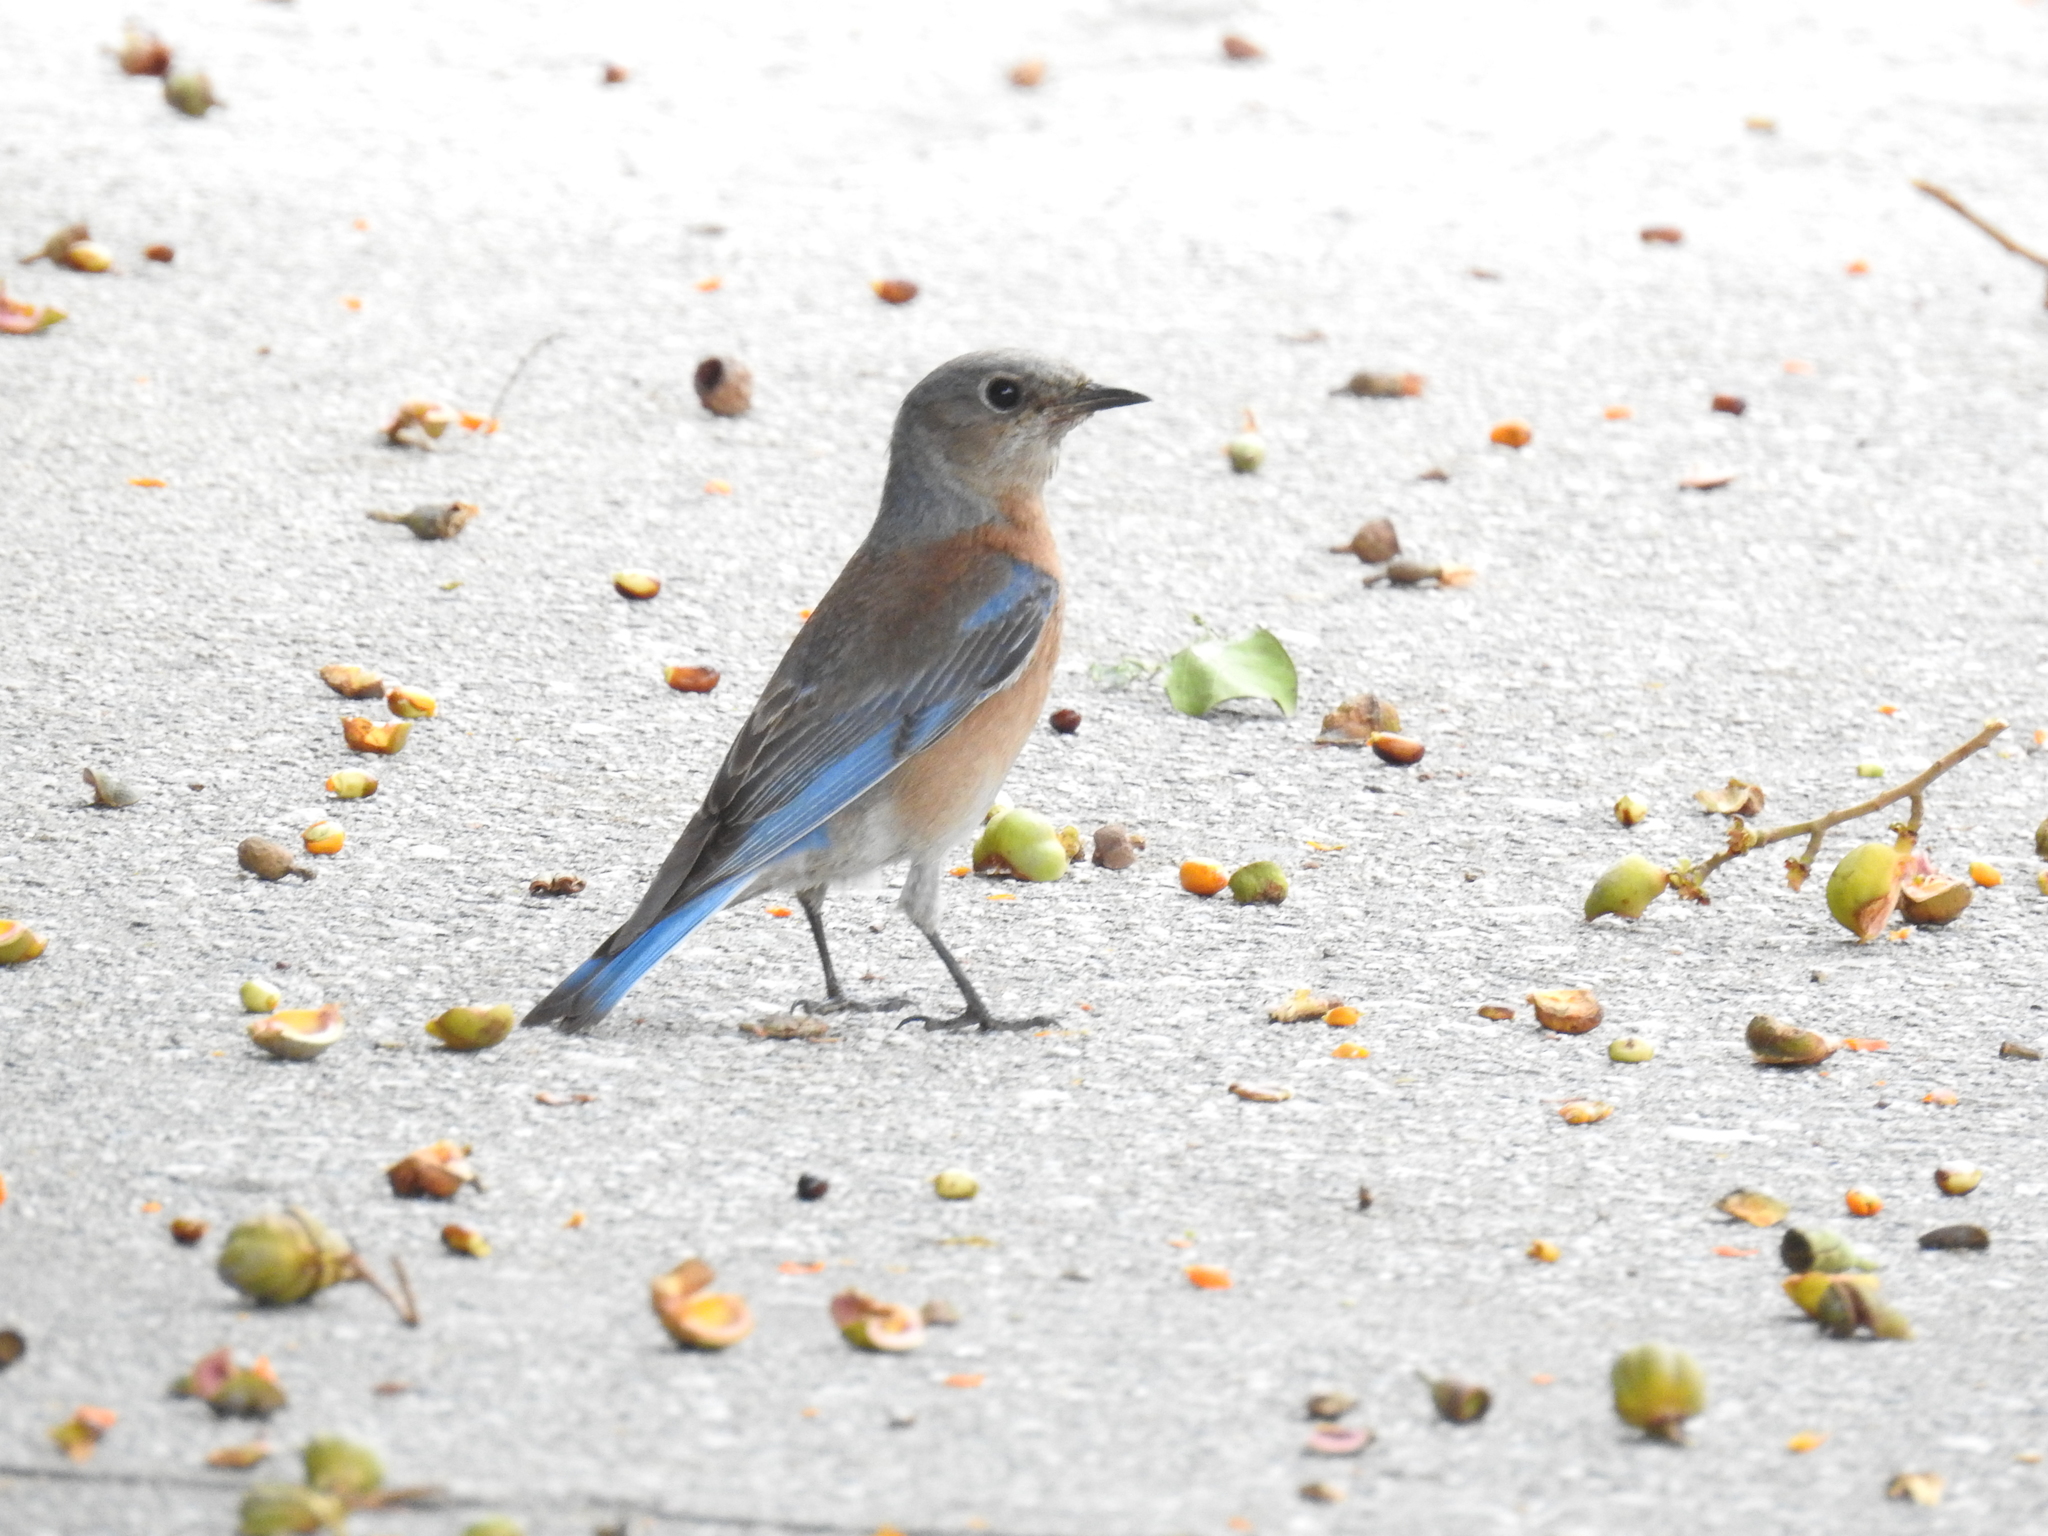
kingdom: Animalia
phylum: Chordata
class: Aves
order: Passeriformes
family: Turdidae
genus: Sialia
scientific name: Sialia mexicana
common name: Western bluebird
